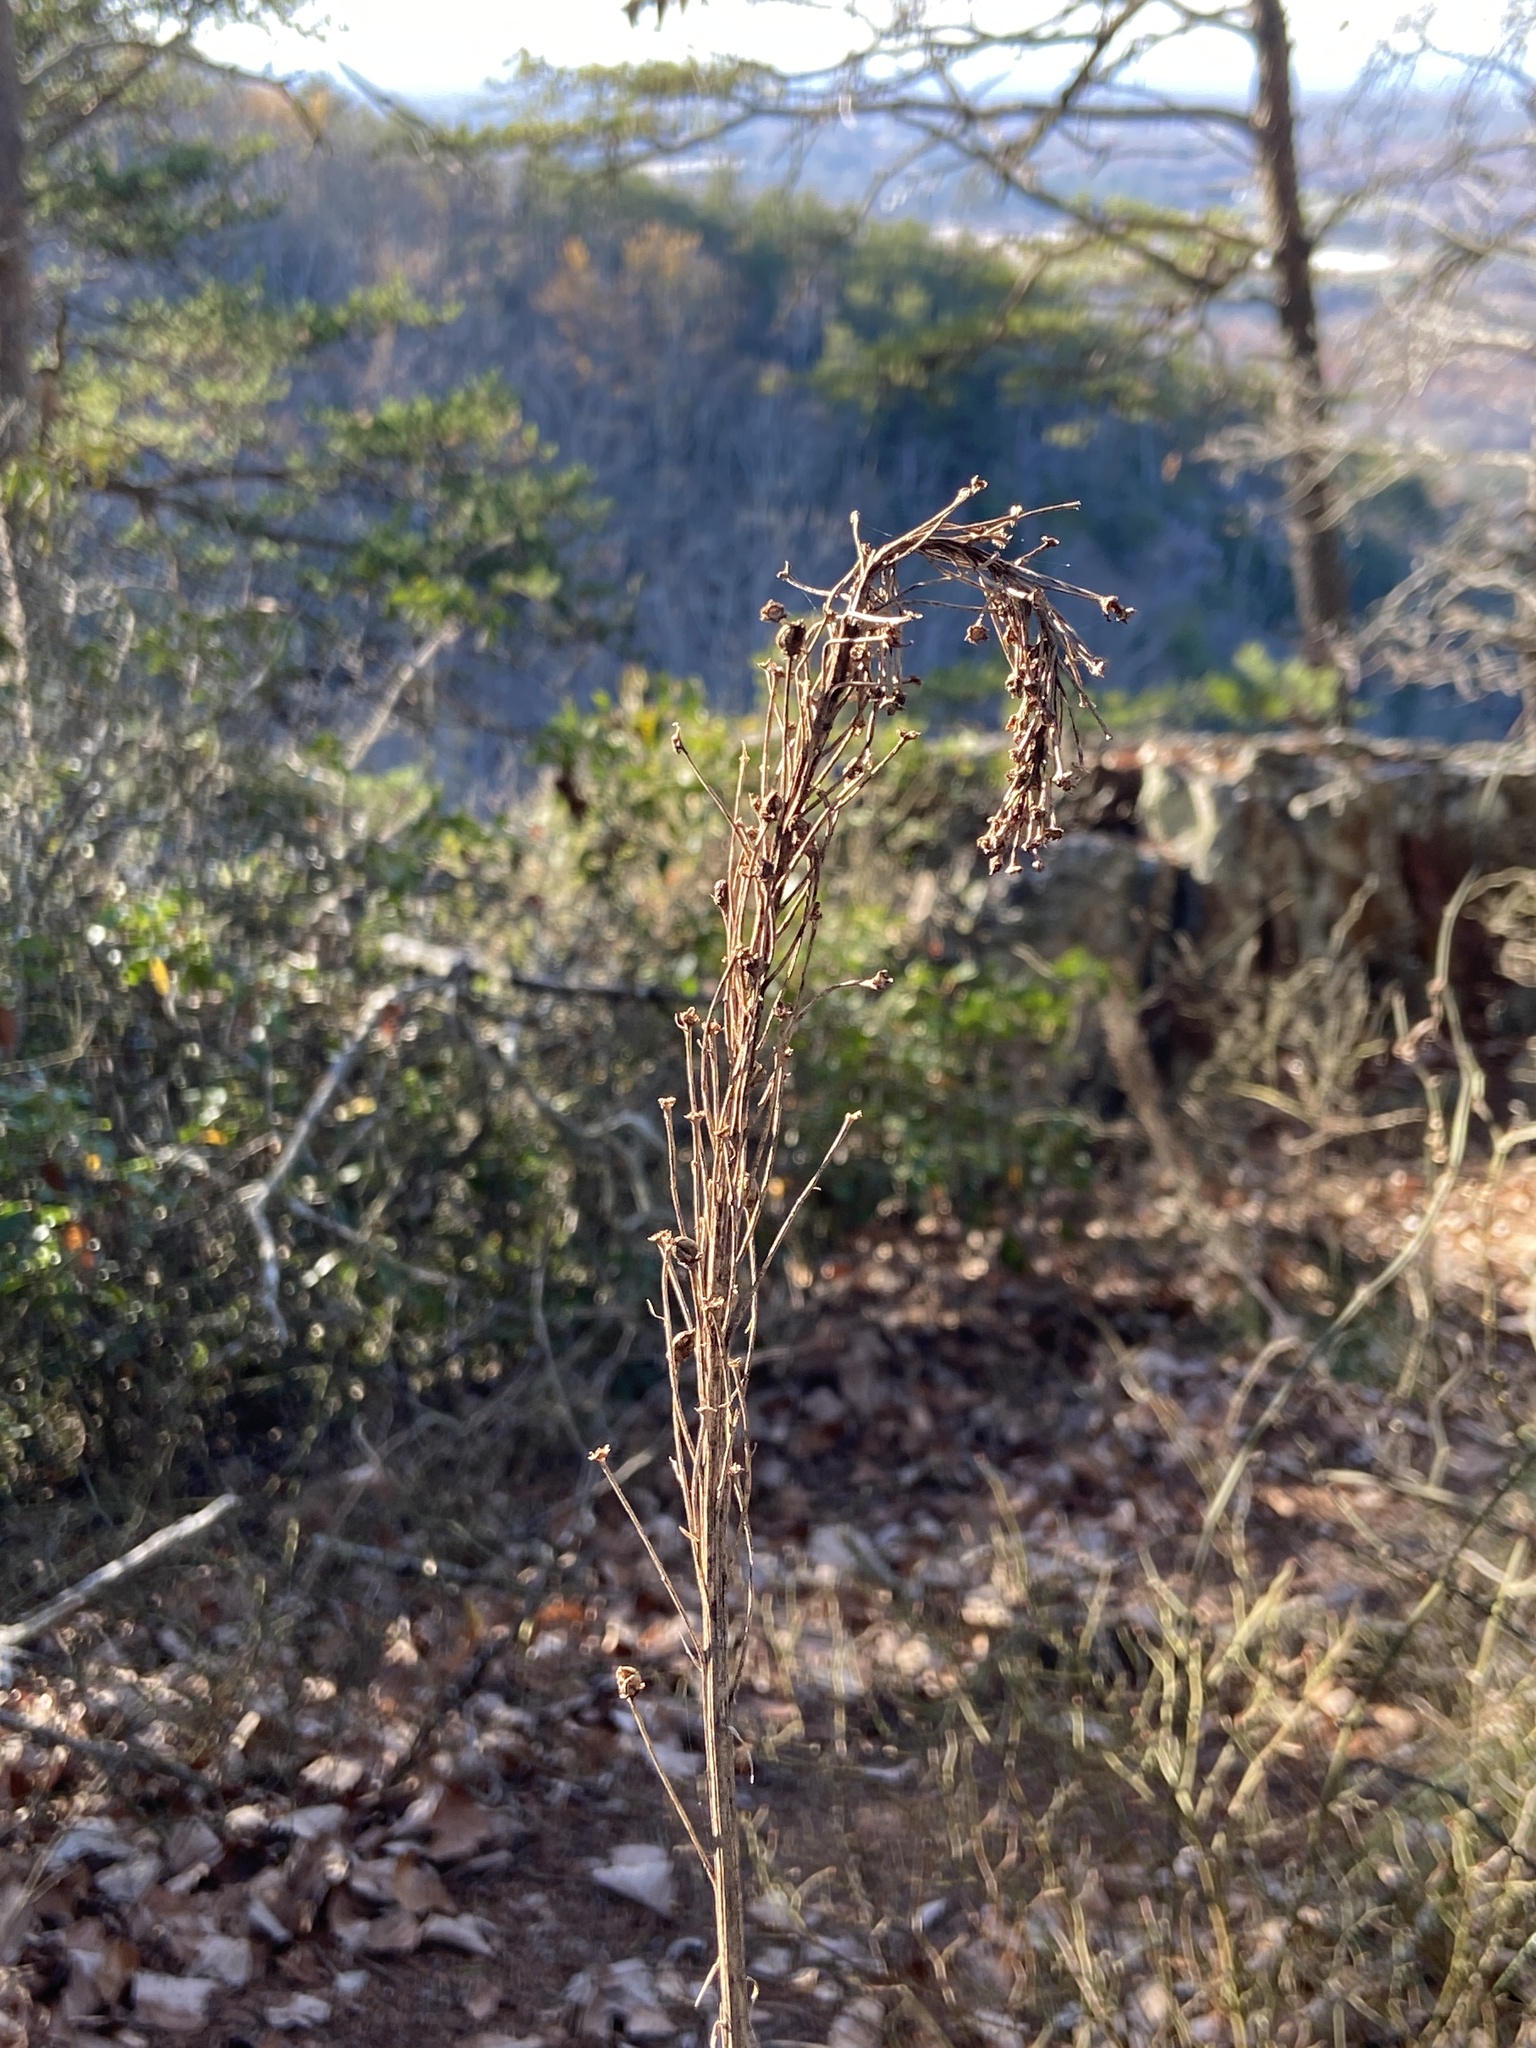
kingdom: Plantae
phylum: Tracheophyta
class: Liliopsida
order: Liliales
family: Melanthiaceae
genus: Xerophyllum
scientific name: Xerophyllum asphodeloides
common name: Mountain-asphodel
